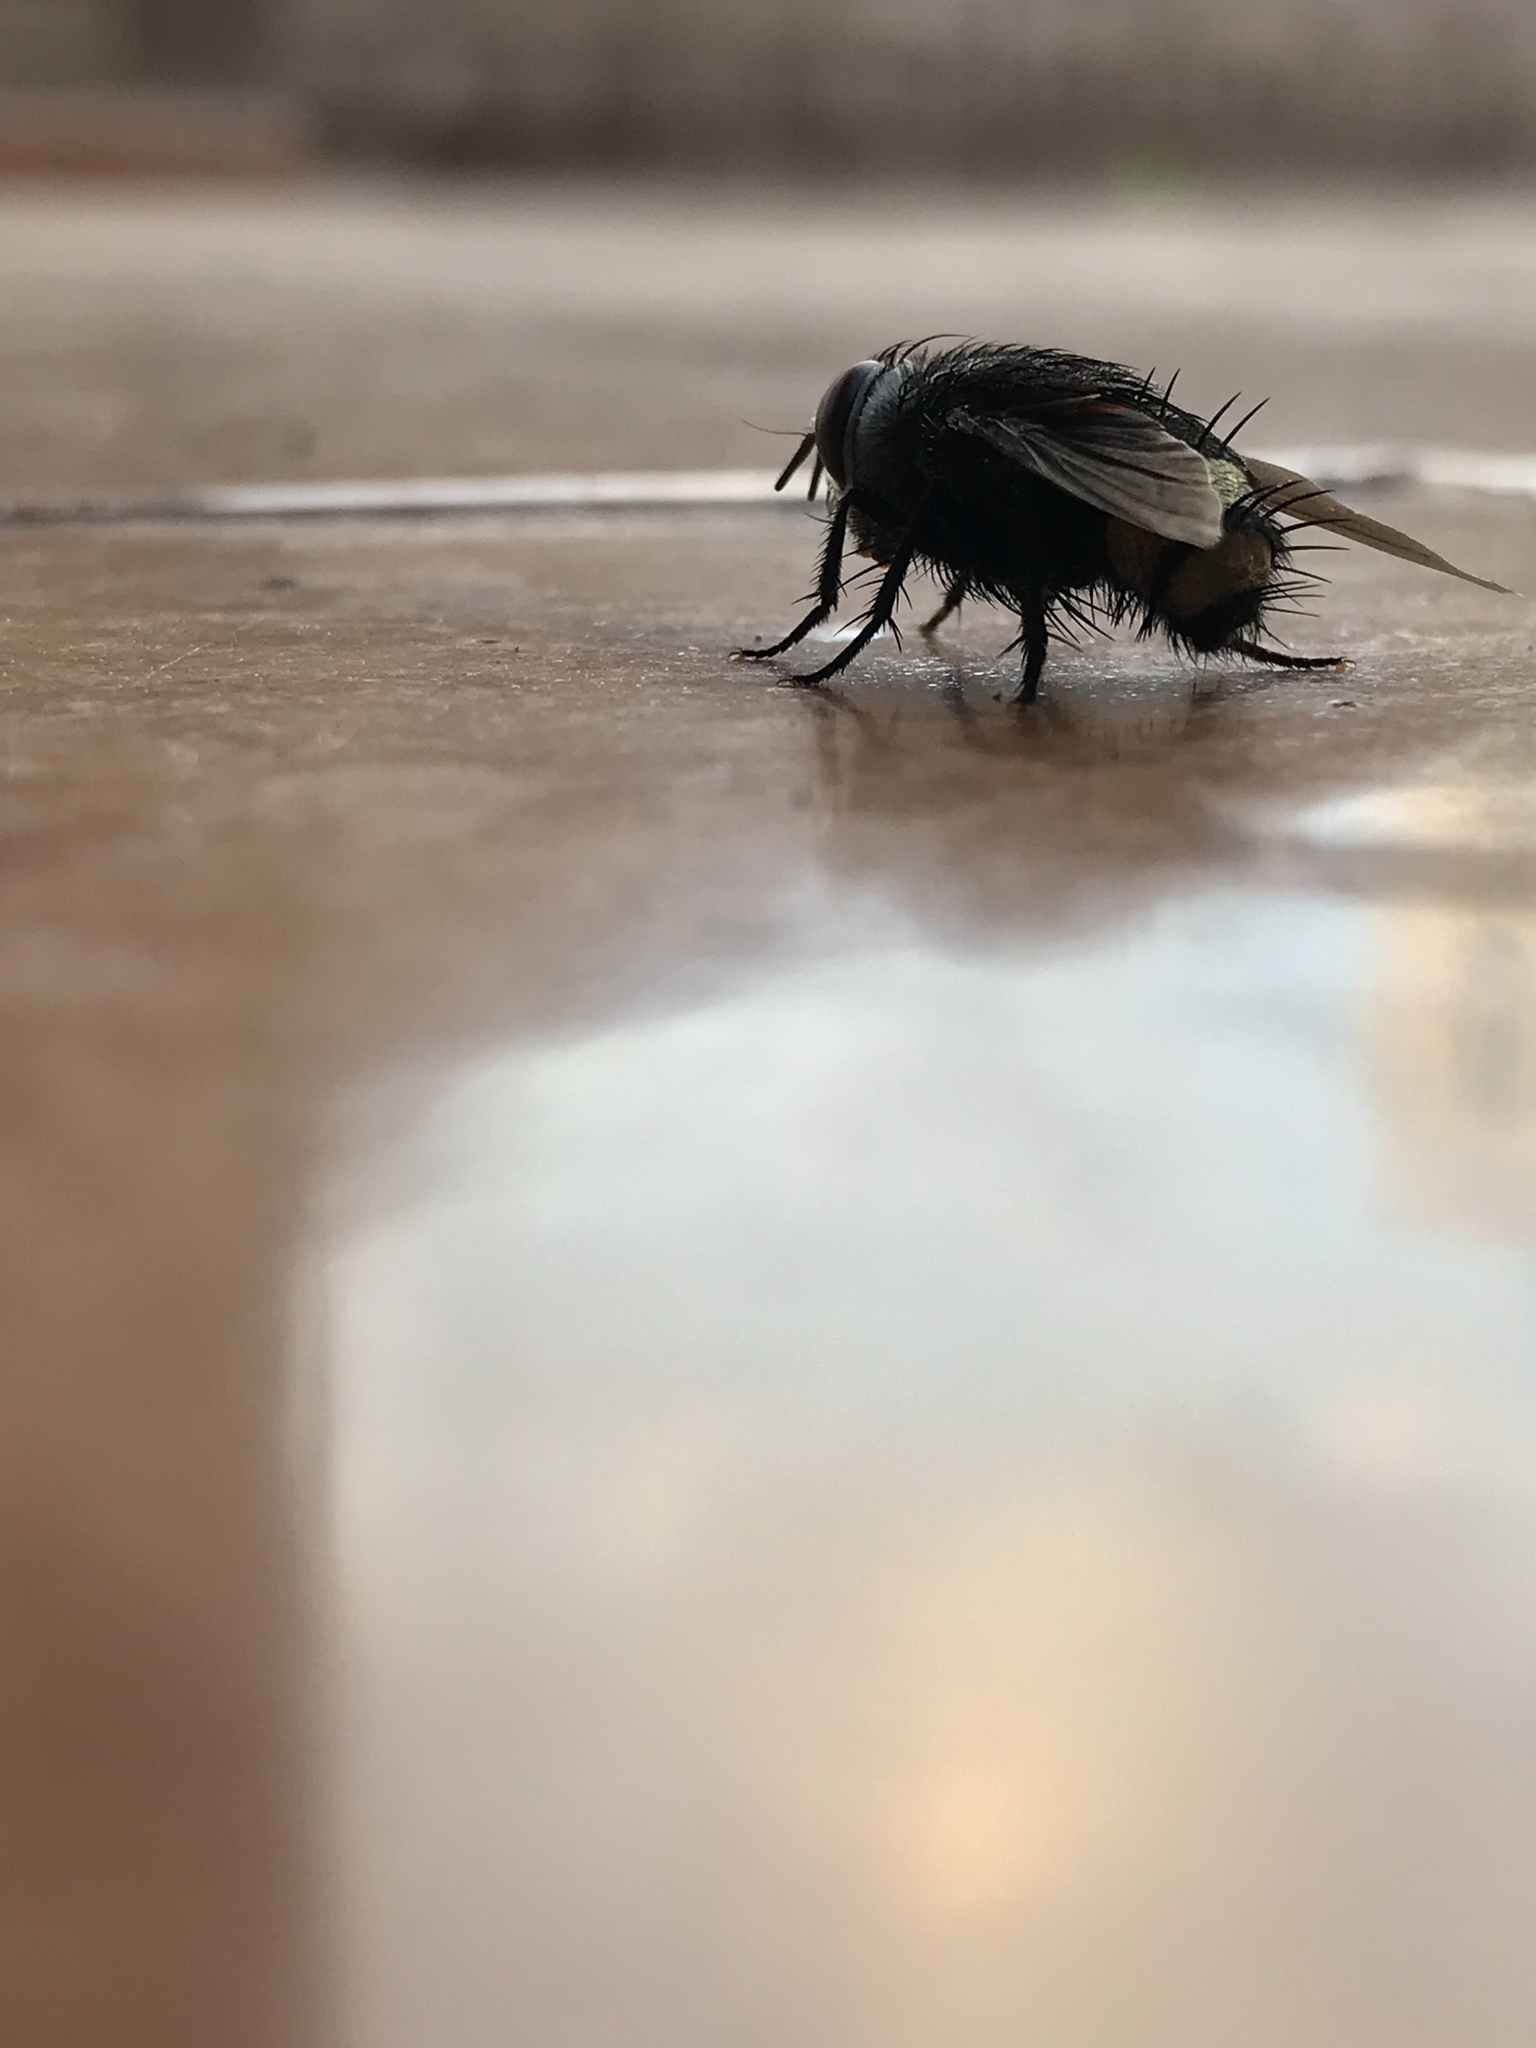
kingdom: Animalia
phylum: Arthropoda
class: Insecta
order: Diptera
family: Tachinidae
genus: Belvosia
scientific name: Belvosia borealis
